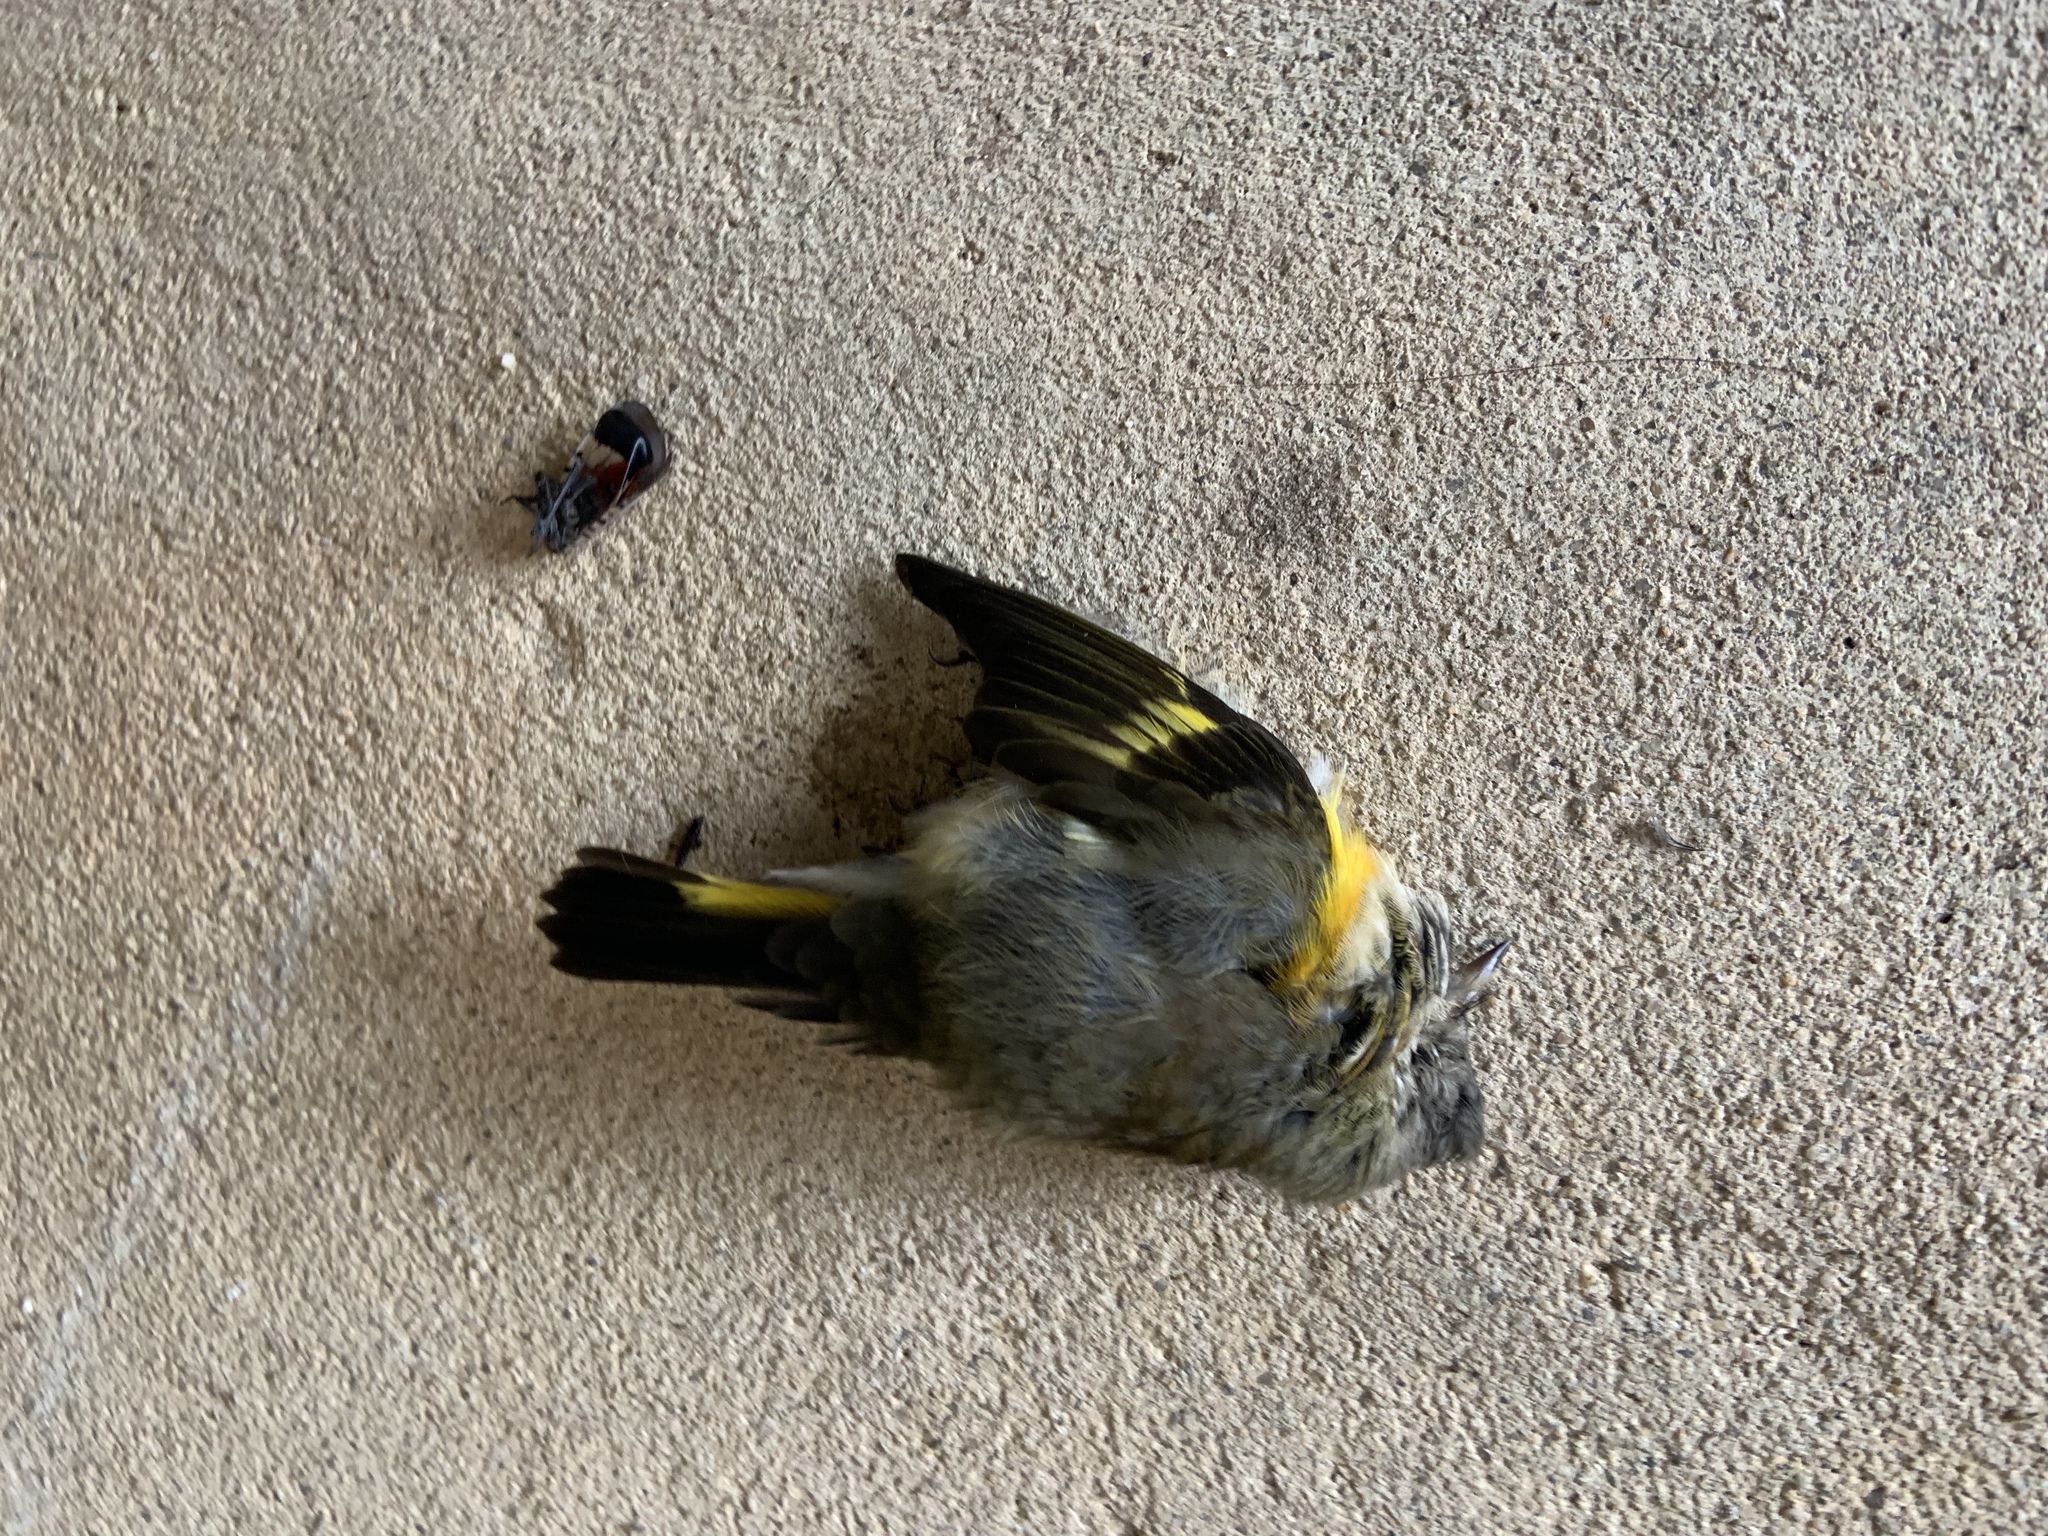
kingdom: Animalia
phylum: Chordata
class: Aves
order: Passeriformes
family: Parulidae
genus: Setophaga
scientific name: Setophaga ruticilla
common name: American redstart
